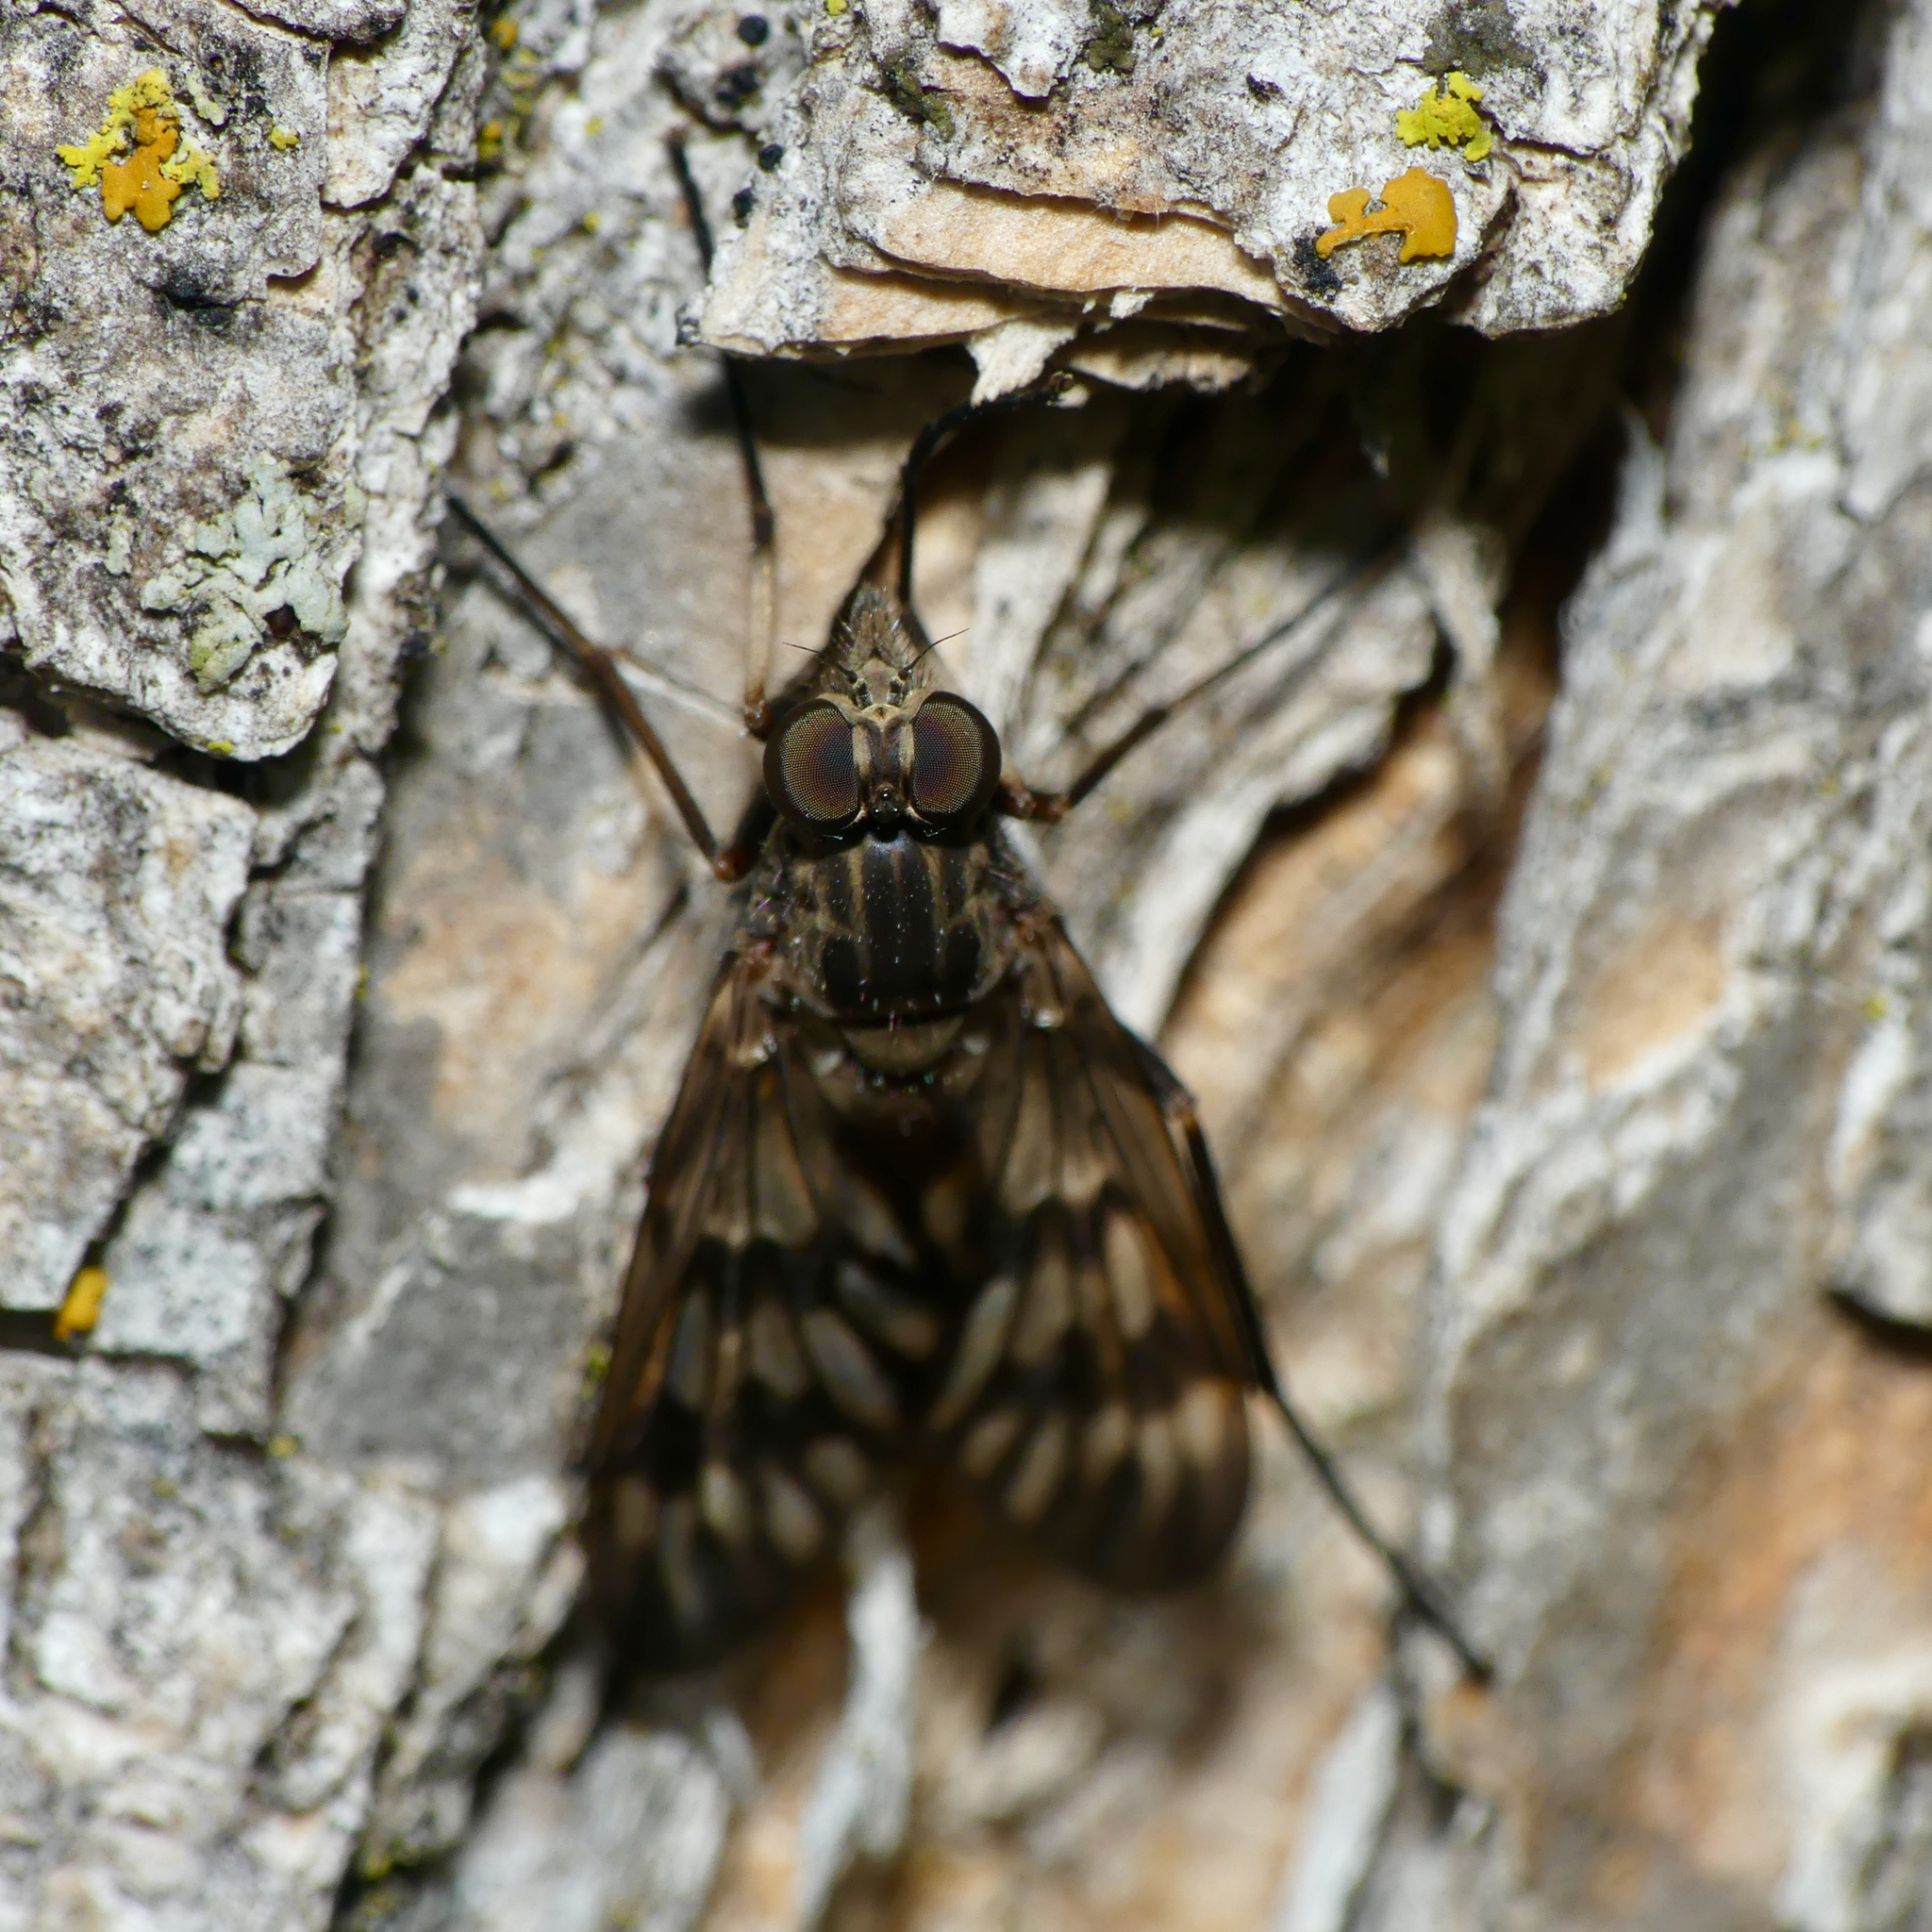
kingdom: Animalia
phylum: Arthropoda
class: Insecta
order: Diptera
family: Rhagionidae
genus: Rhagio
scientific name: Rhagio mystaceus
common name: Common snipe fly
